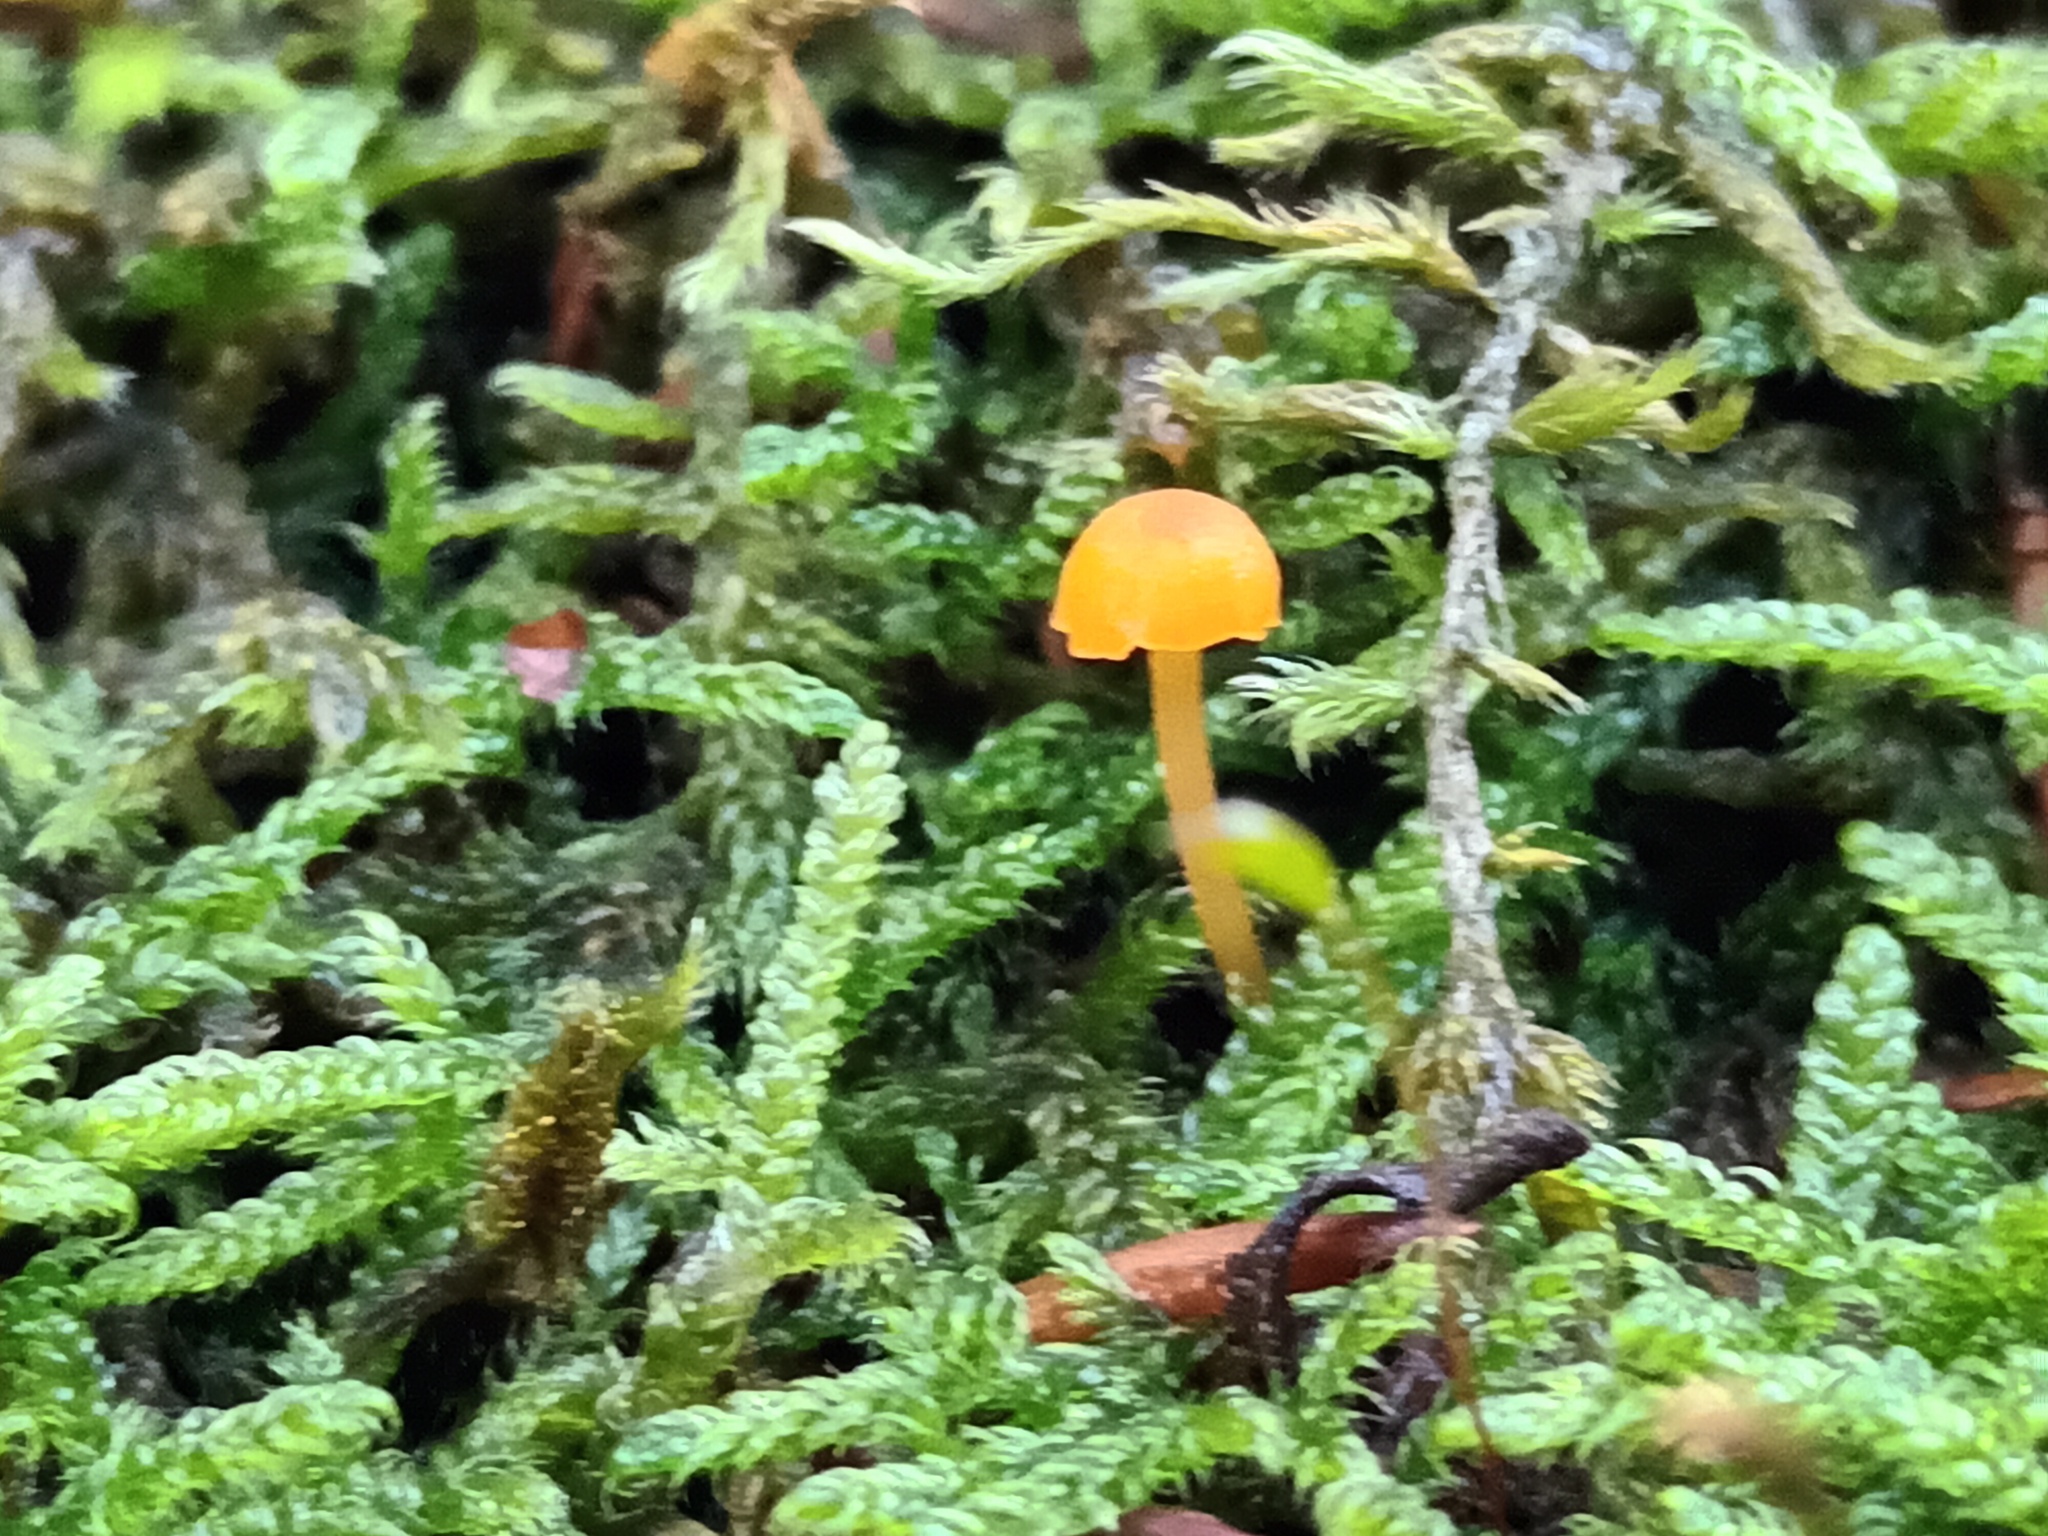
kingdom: Fungi
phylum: Basidiomycota
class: Agaricomycetes
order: Hymenochaetales
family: Rickenellaceae
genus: Rickenella
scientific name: Rickenella fibula
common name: Orange mosscap
